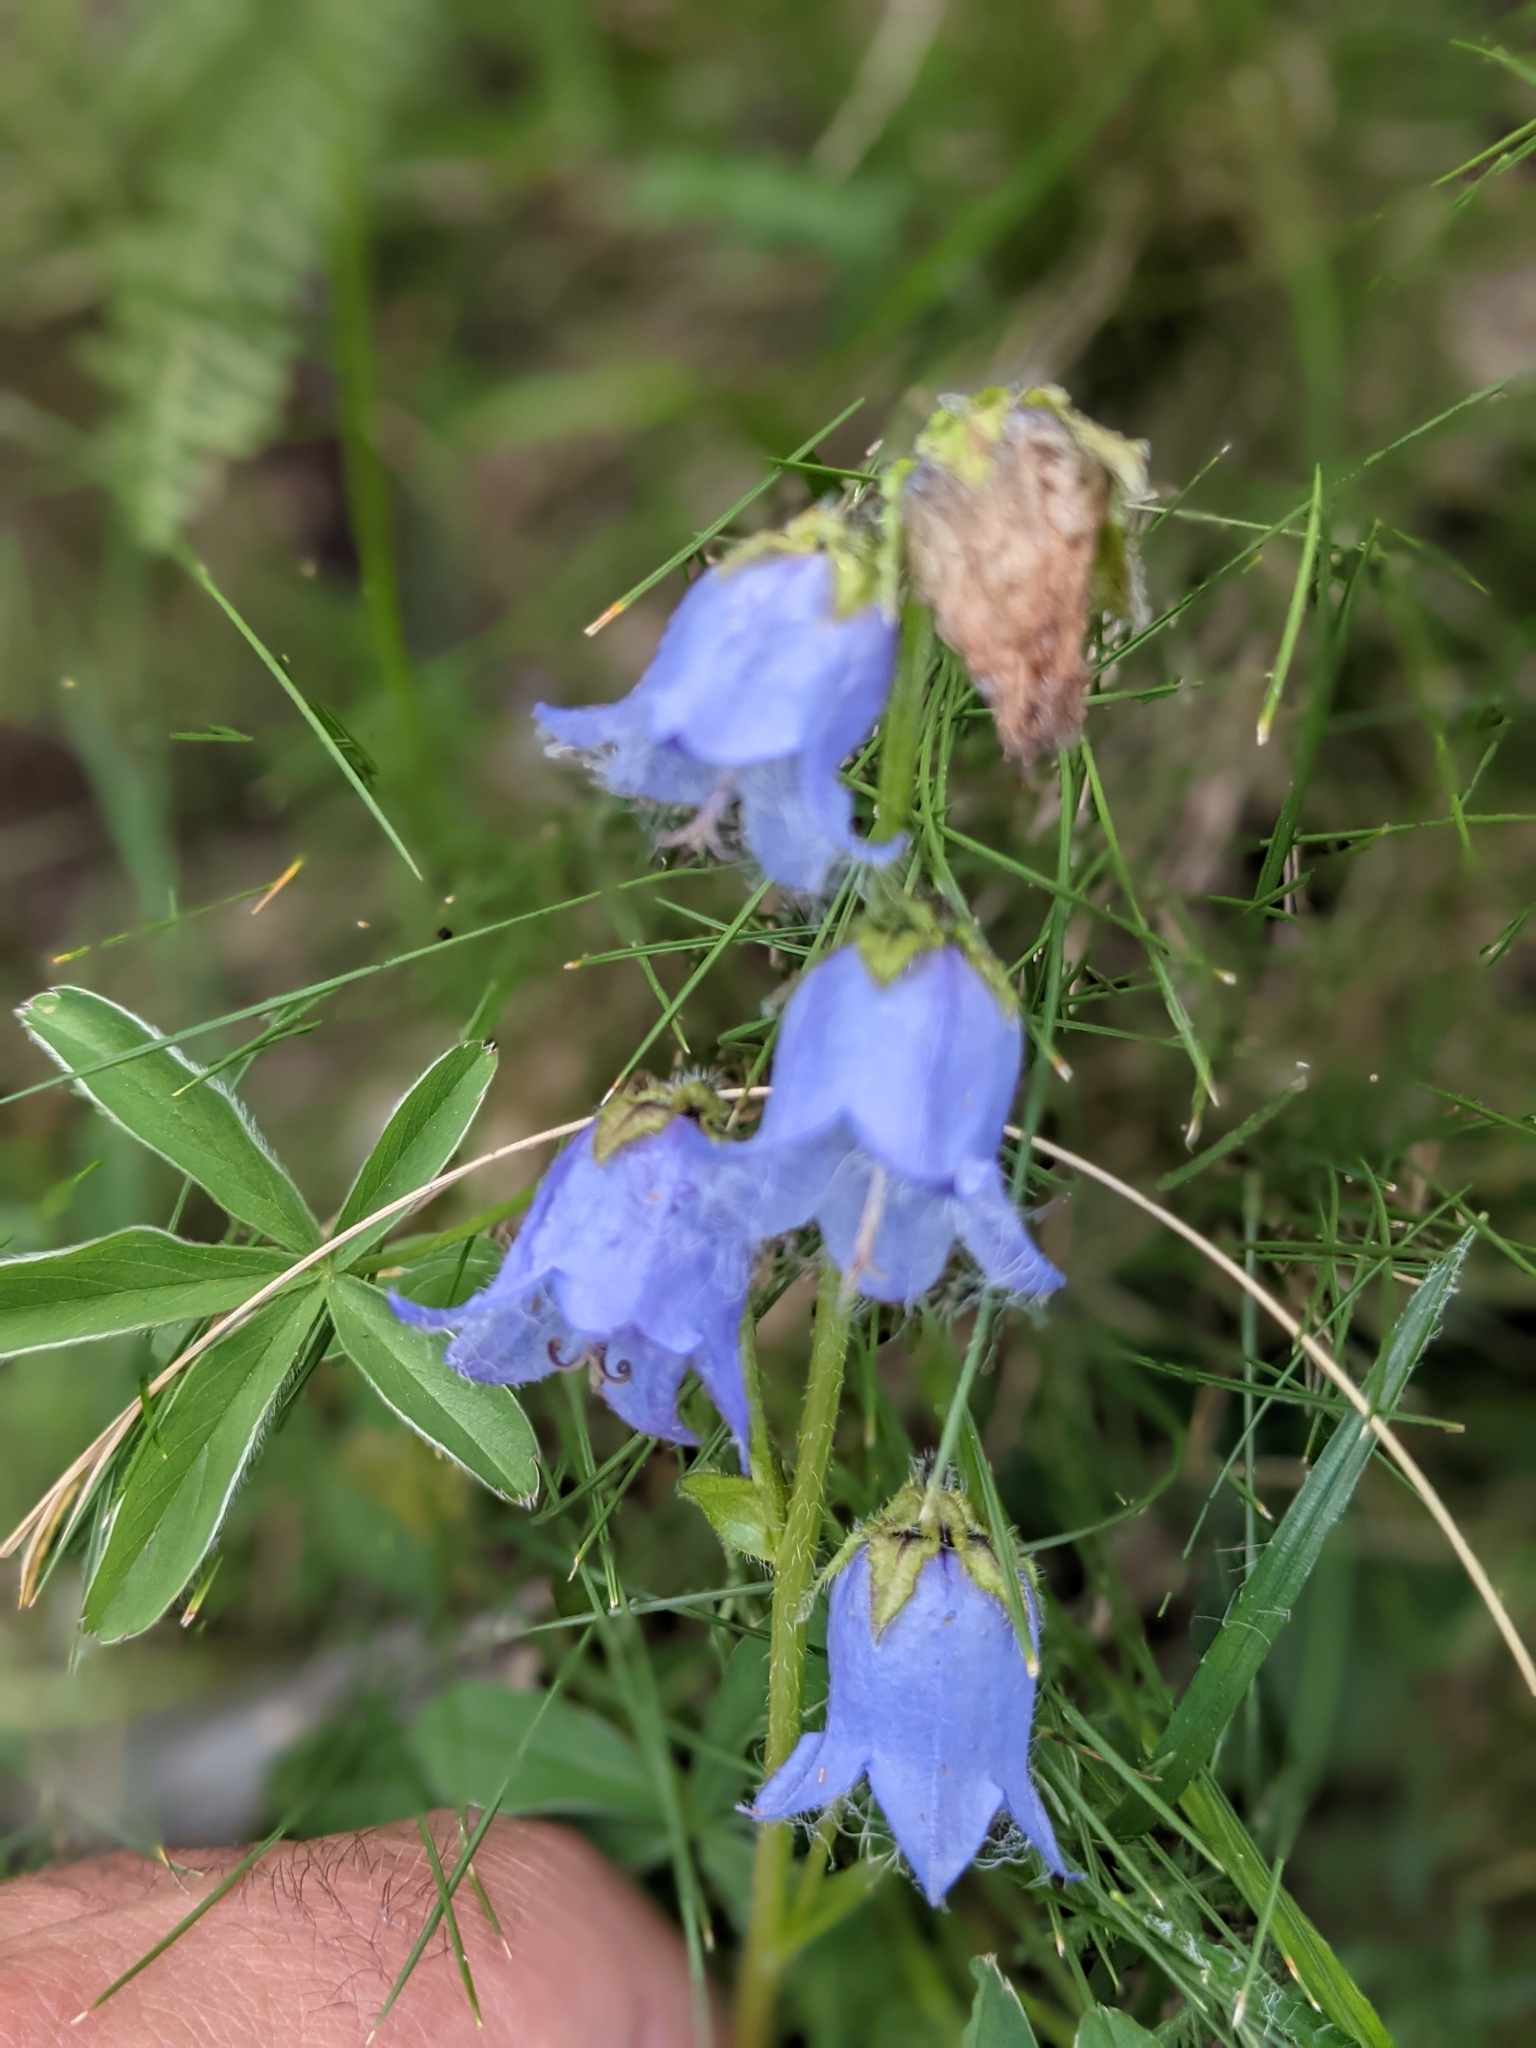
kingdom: Plantae
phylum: Tracheophyta
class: Magnoliopsida
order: Asterales
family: Campanulaceae
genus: Campanula
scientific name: Campanula barbata
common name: Bearded bellflower
